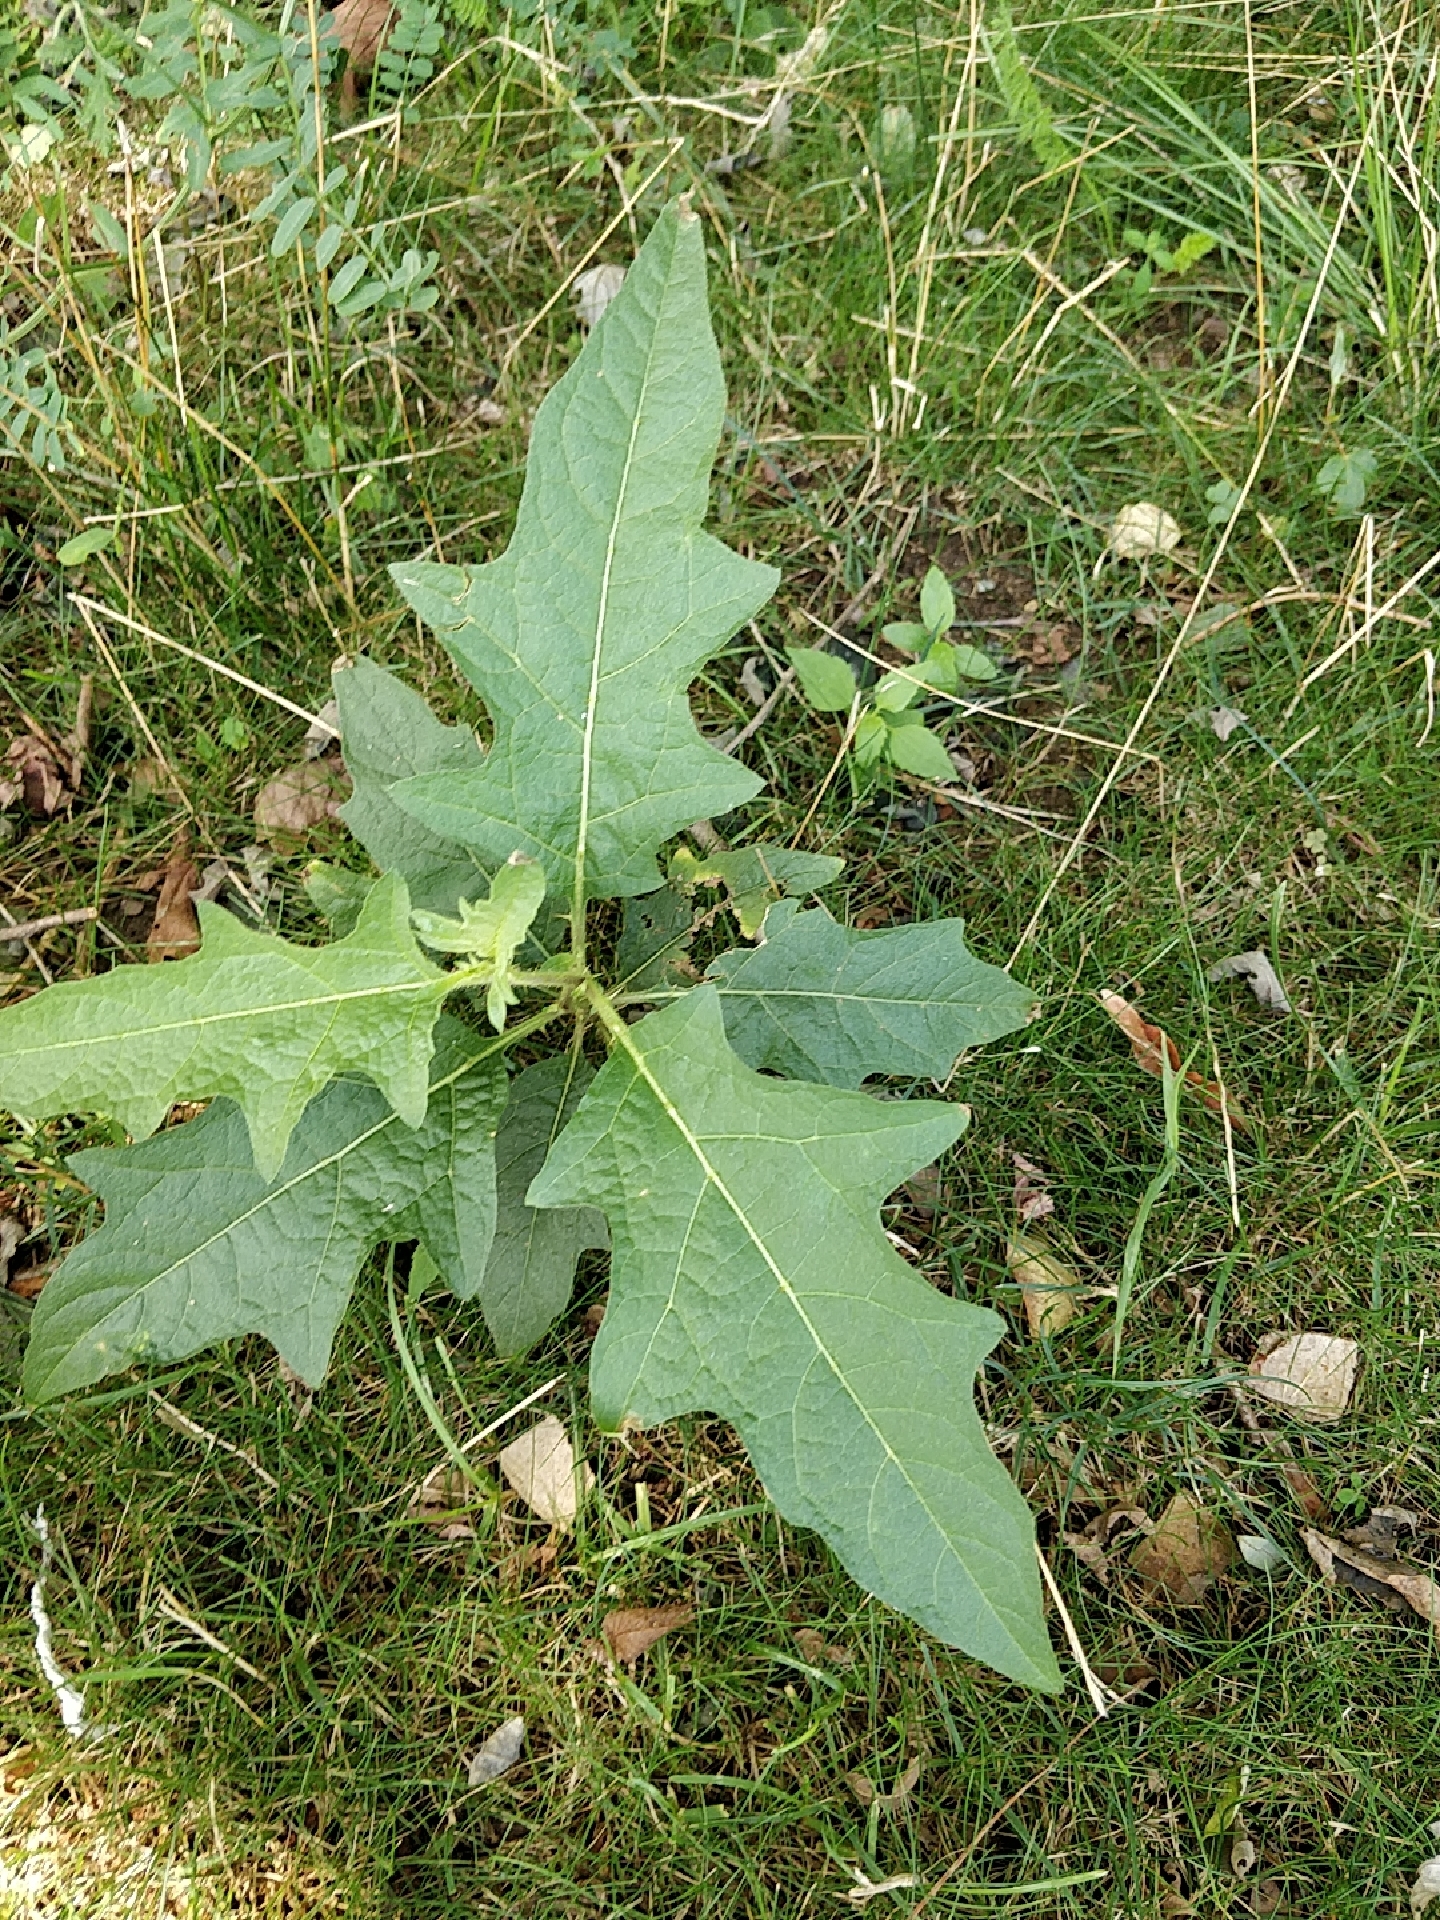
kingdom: Plantae
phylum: Tracheophyta
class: Magnoliopsida
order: Solanales
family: Solanaceae
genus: Solanum
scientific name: Solanum carolinense
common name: Horse-nettle
